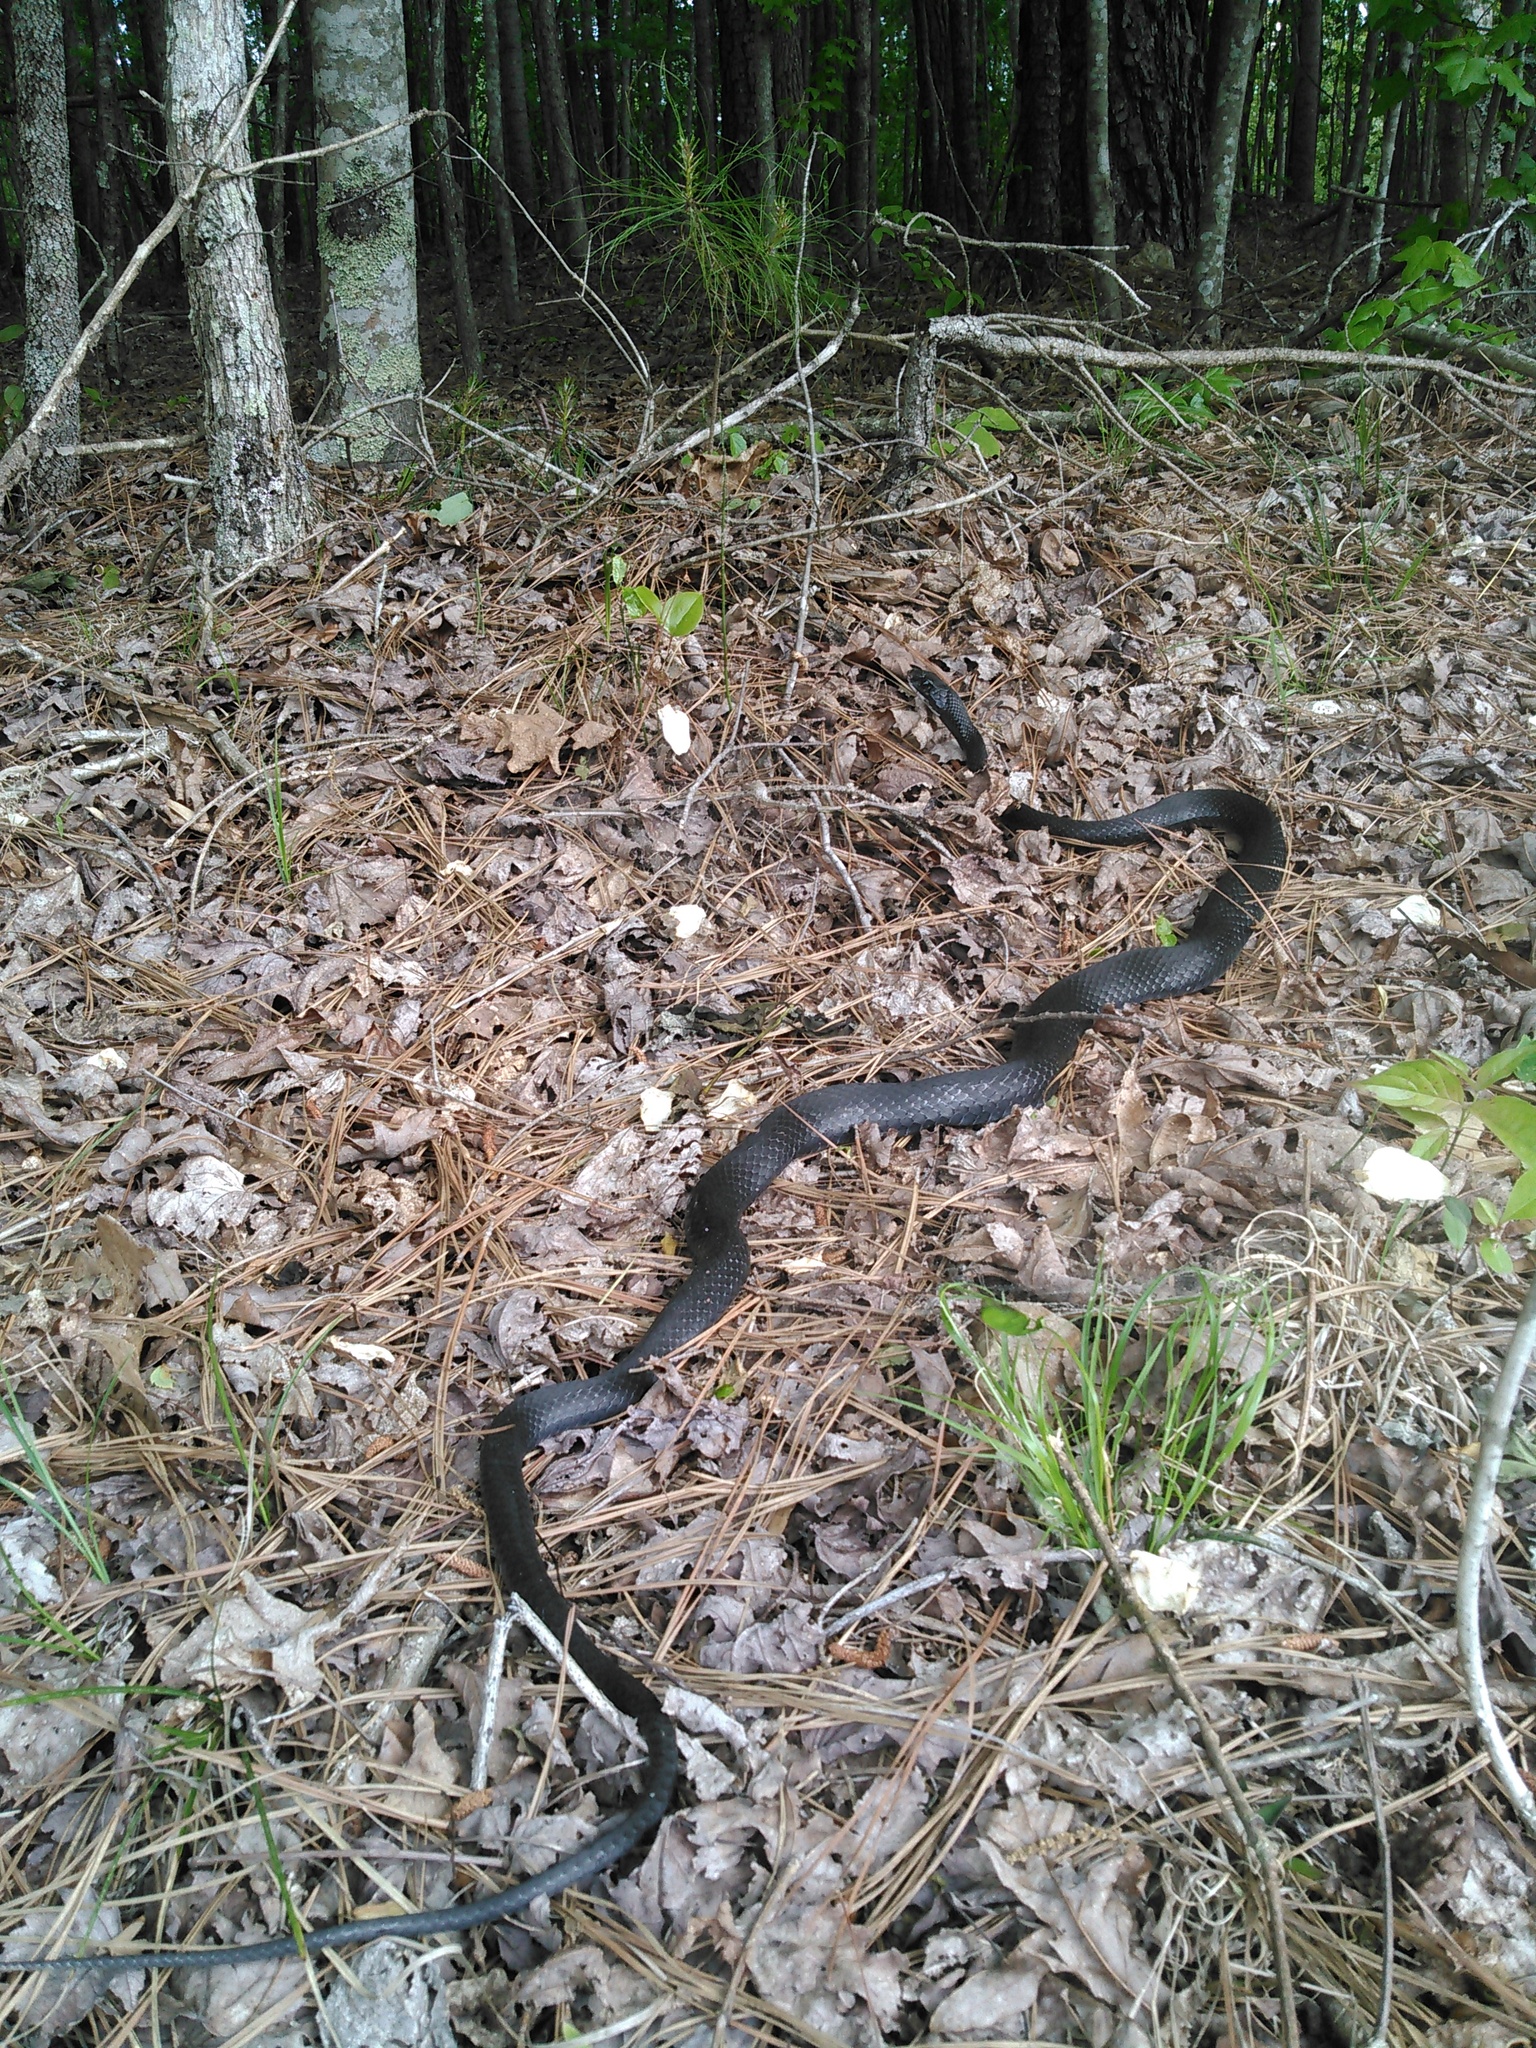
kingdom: Animalia
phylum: Chordata
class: Squamata
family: Colubridae
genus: Coluber
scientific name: Coluber constrictor
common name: Eastern racer
